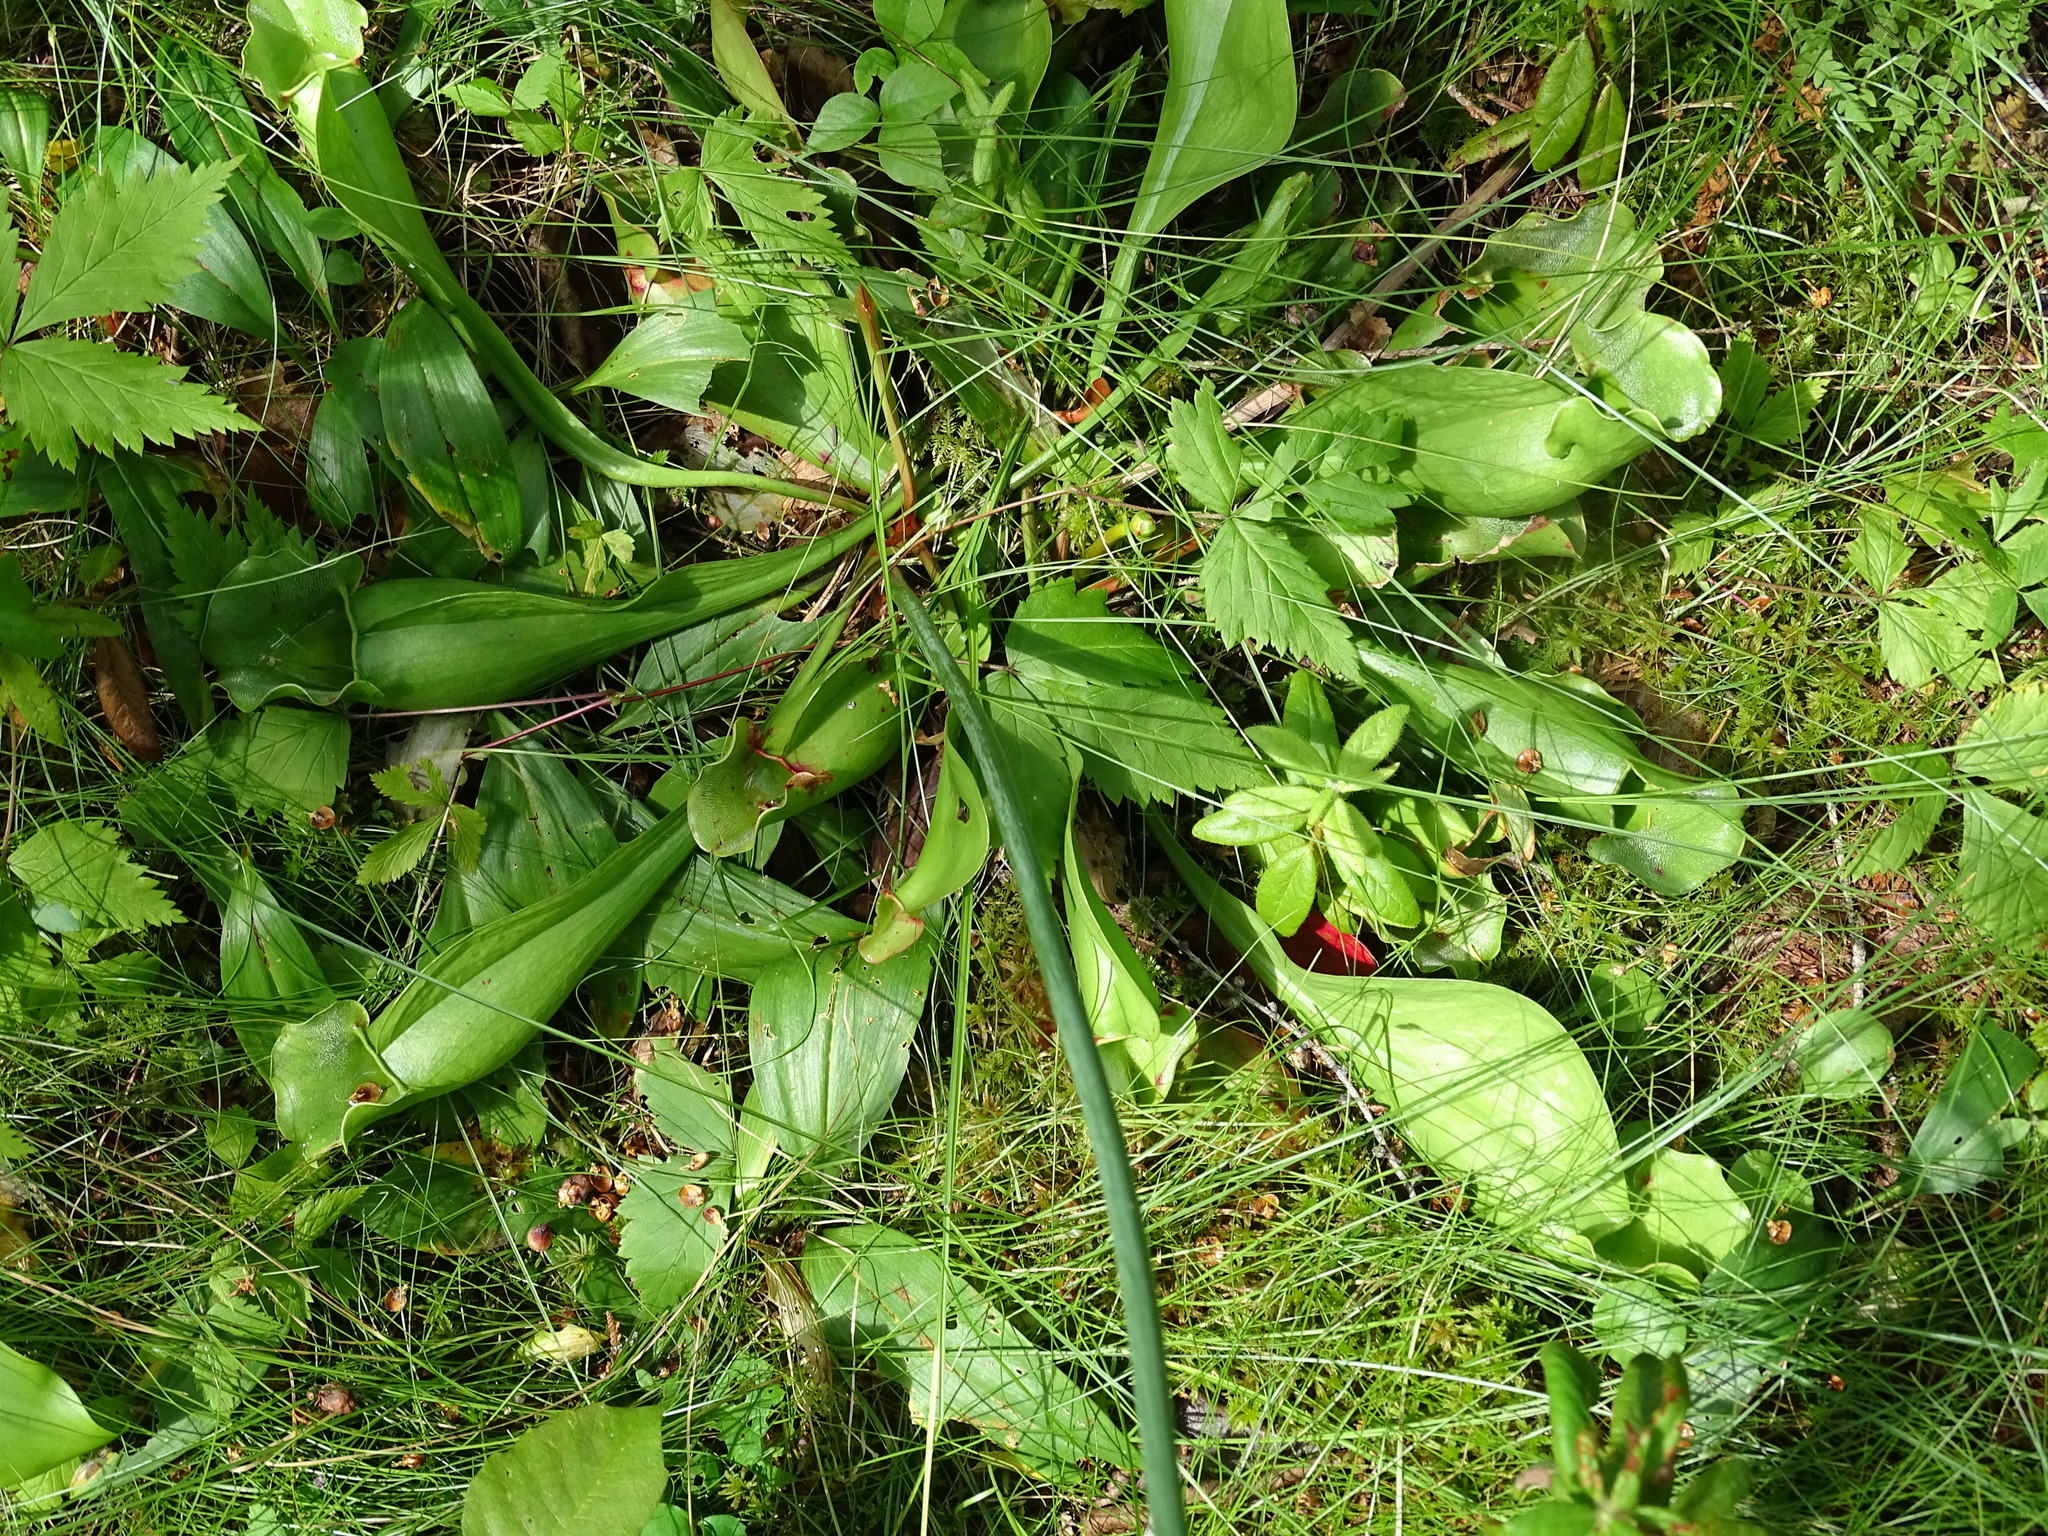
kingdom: Plantae
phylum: Tracheophyta
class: Magnoliopsida
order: Ericales
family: Sarraceniaceae
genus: Sarracenia
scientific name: Sarracenia purpurea
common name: Pitcherplant
